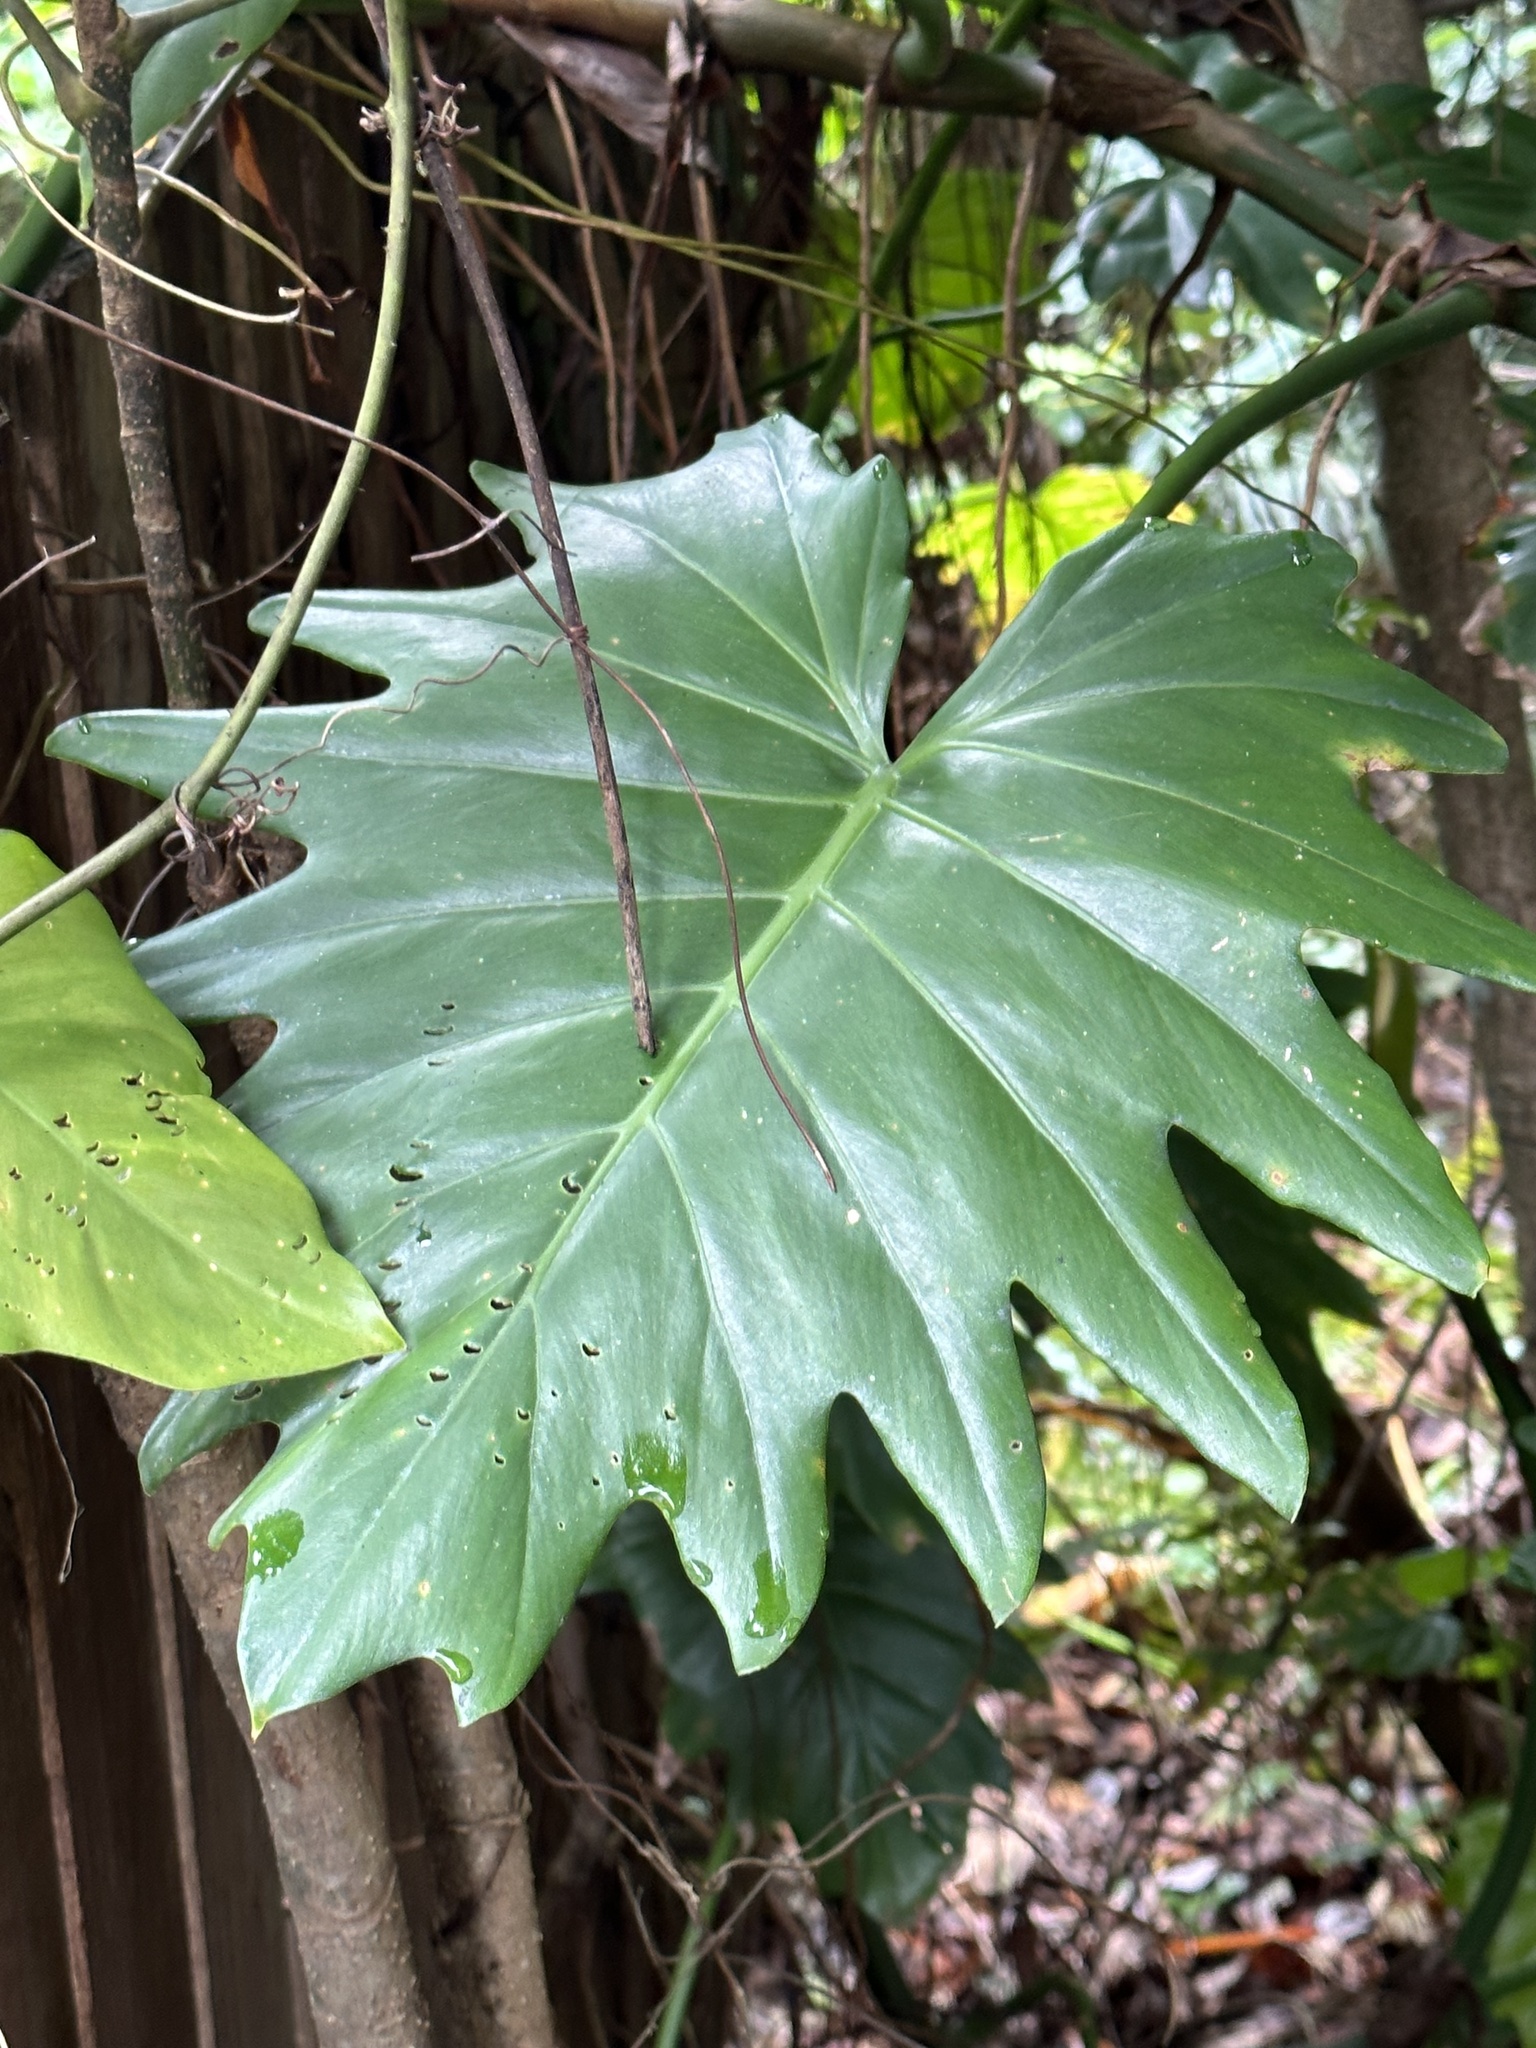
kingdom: Plantae
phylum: Tracheophyta
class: Liliopsida
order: Alismatales
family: Araceae
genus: Philodendron
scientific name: Philodendron lacerum
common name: Philodendron
